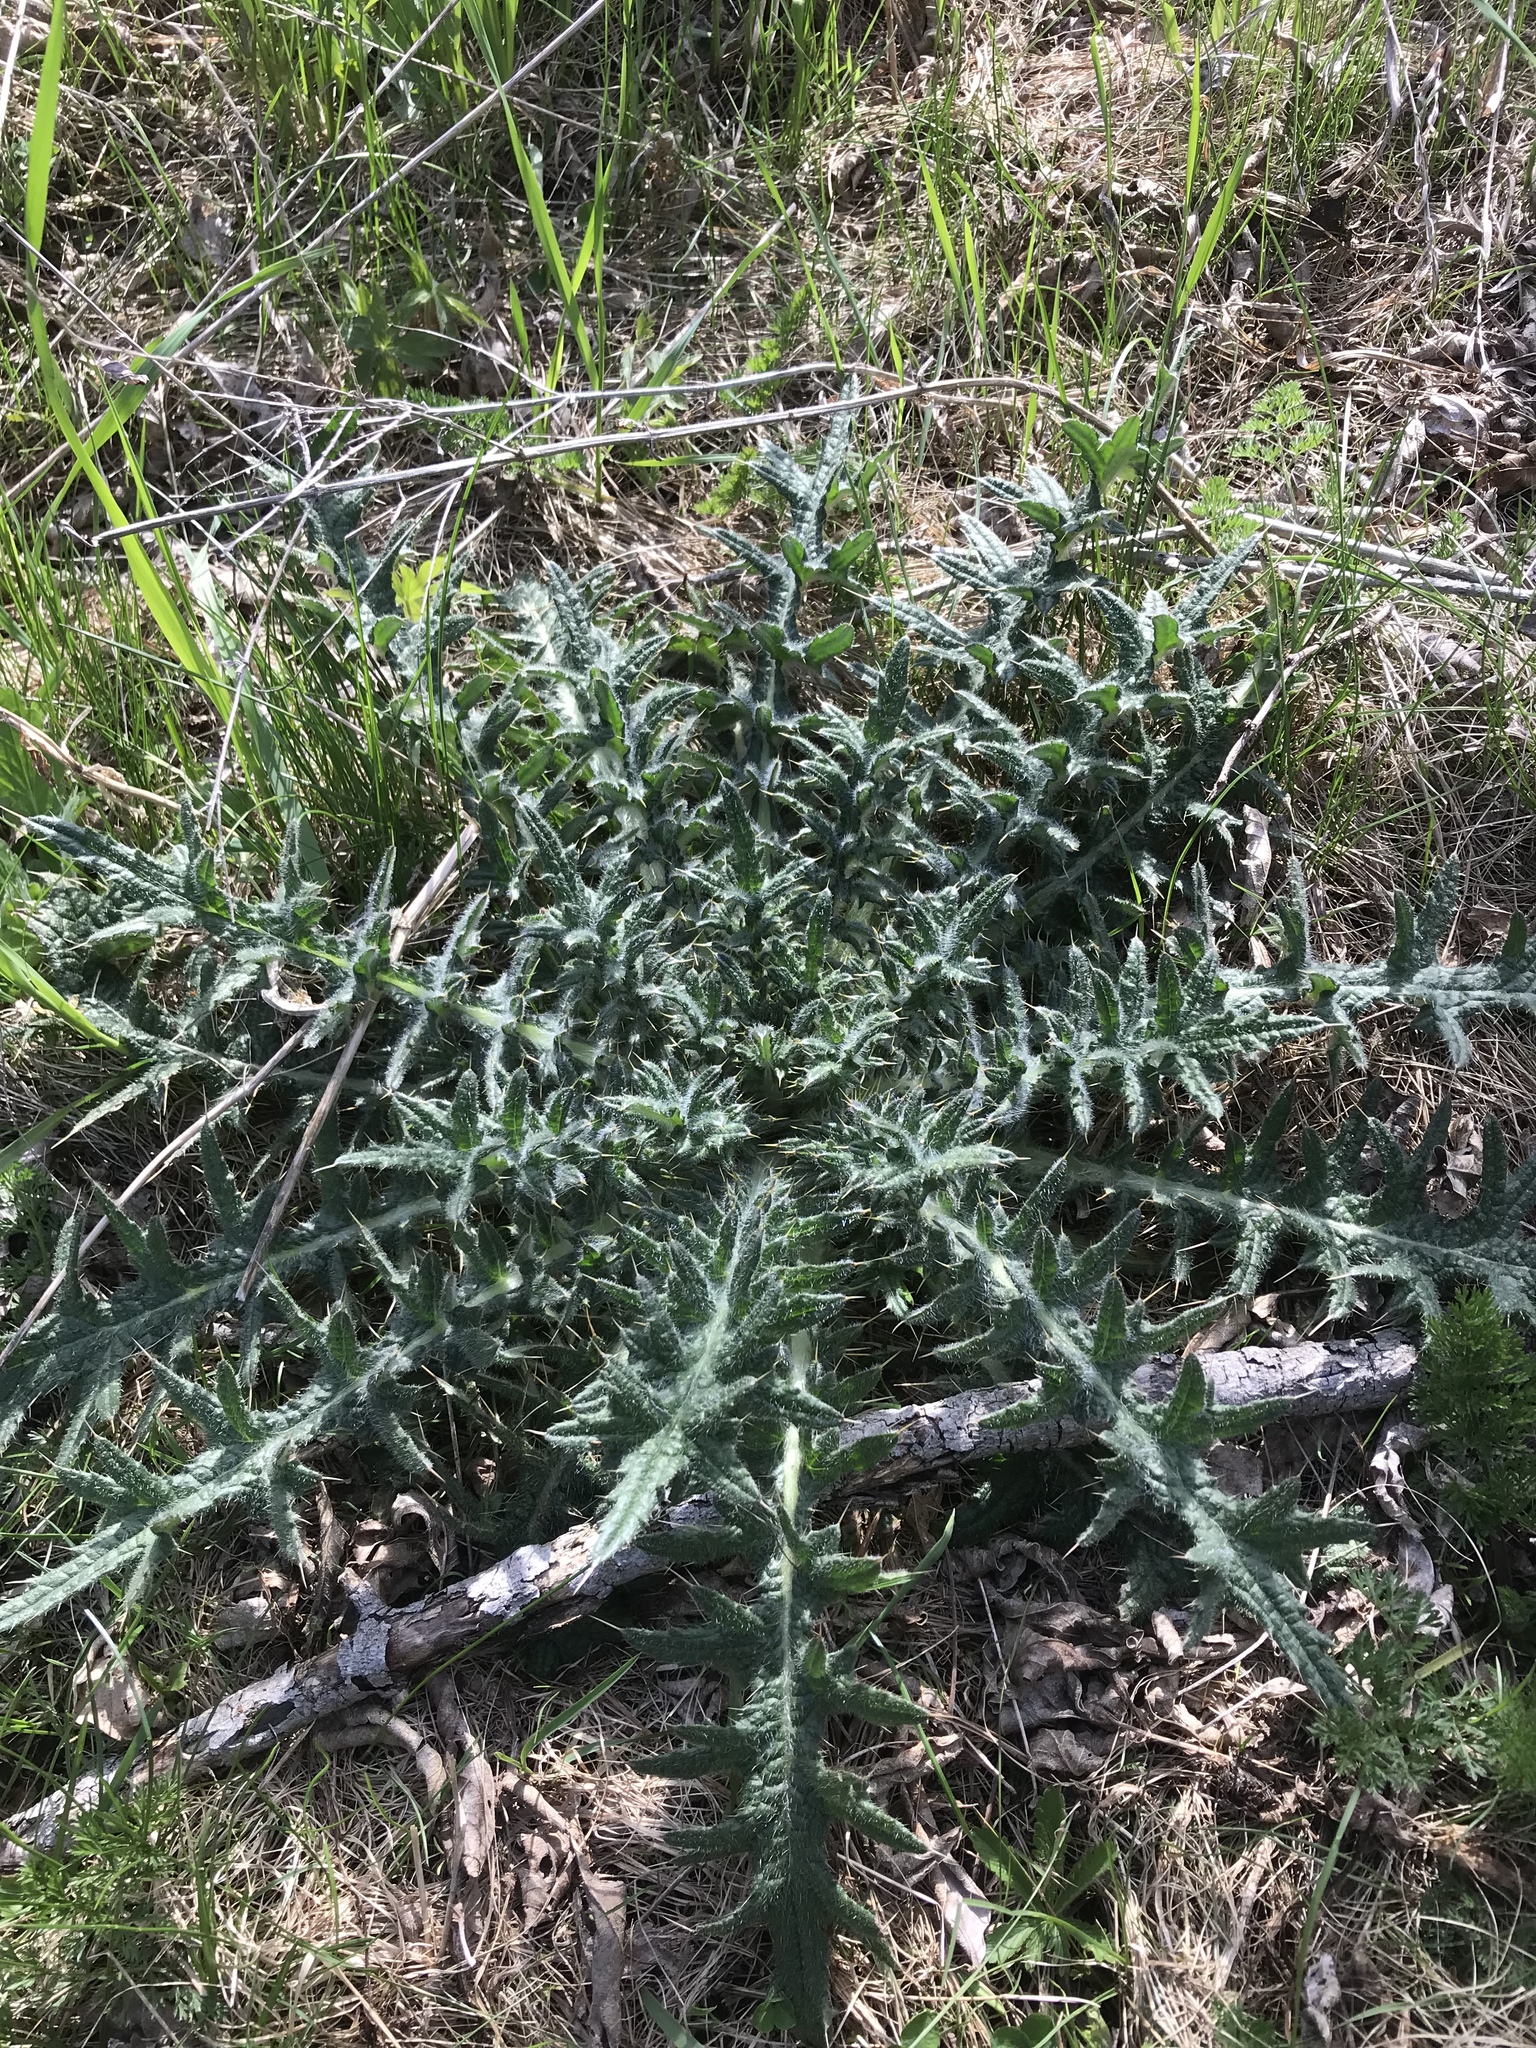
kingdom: Plantae
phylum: Tracheophyta
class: Magnoliopsida
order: Asterales
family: Asteraceae
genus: Cirsium
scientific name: Cirsium vulgare
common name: Bull thistle
